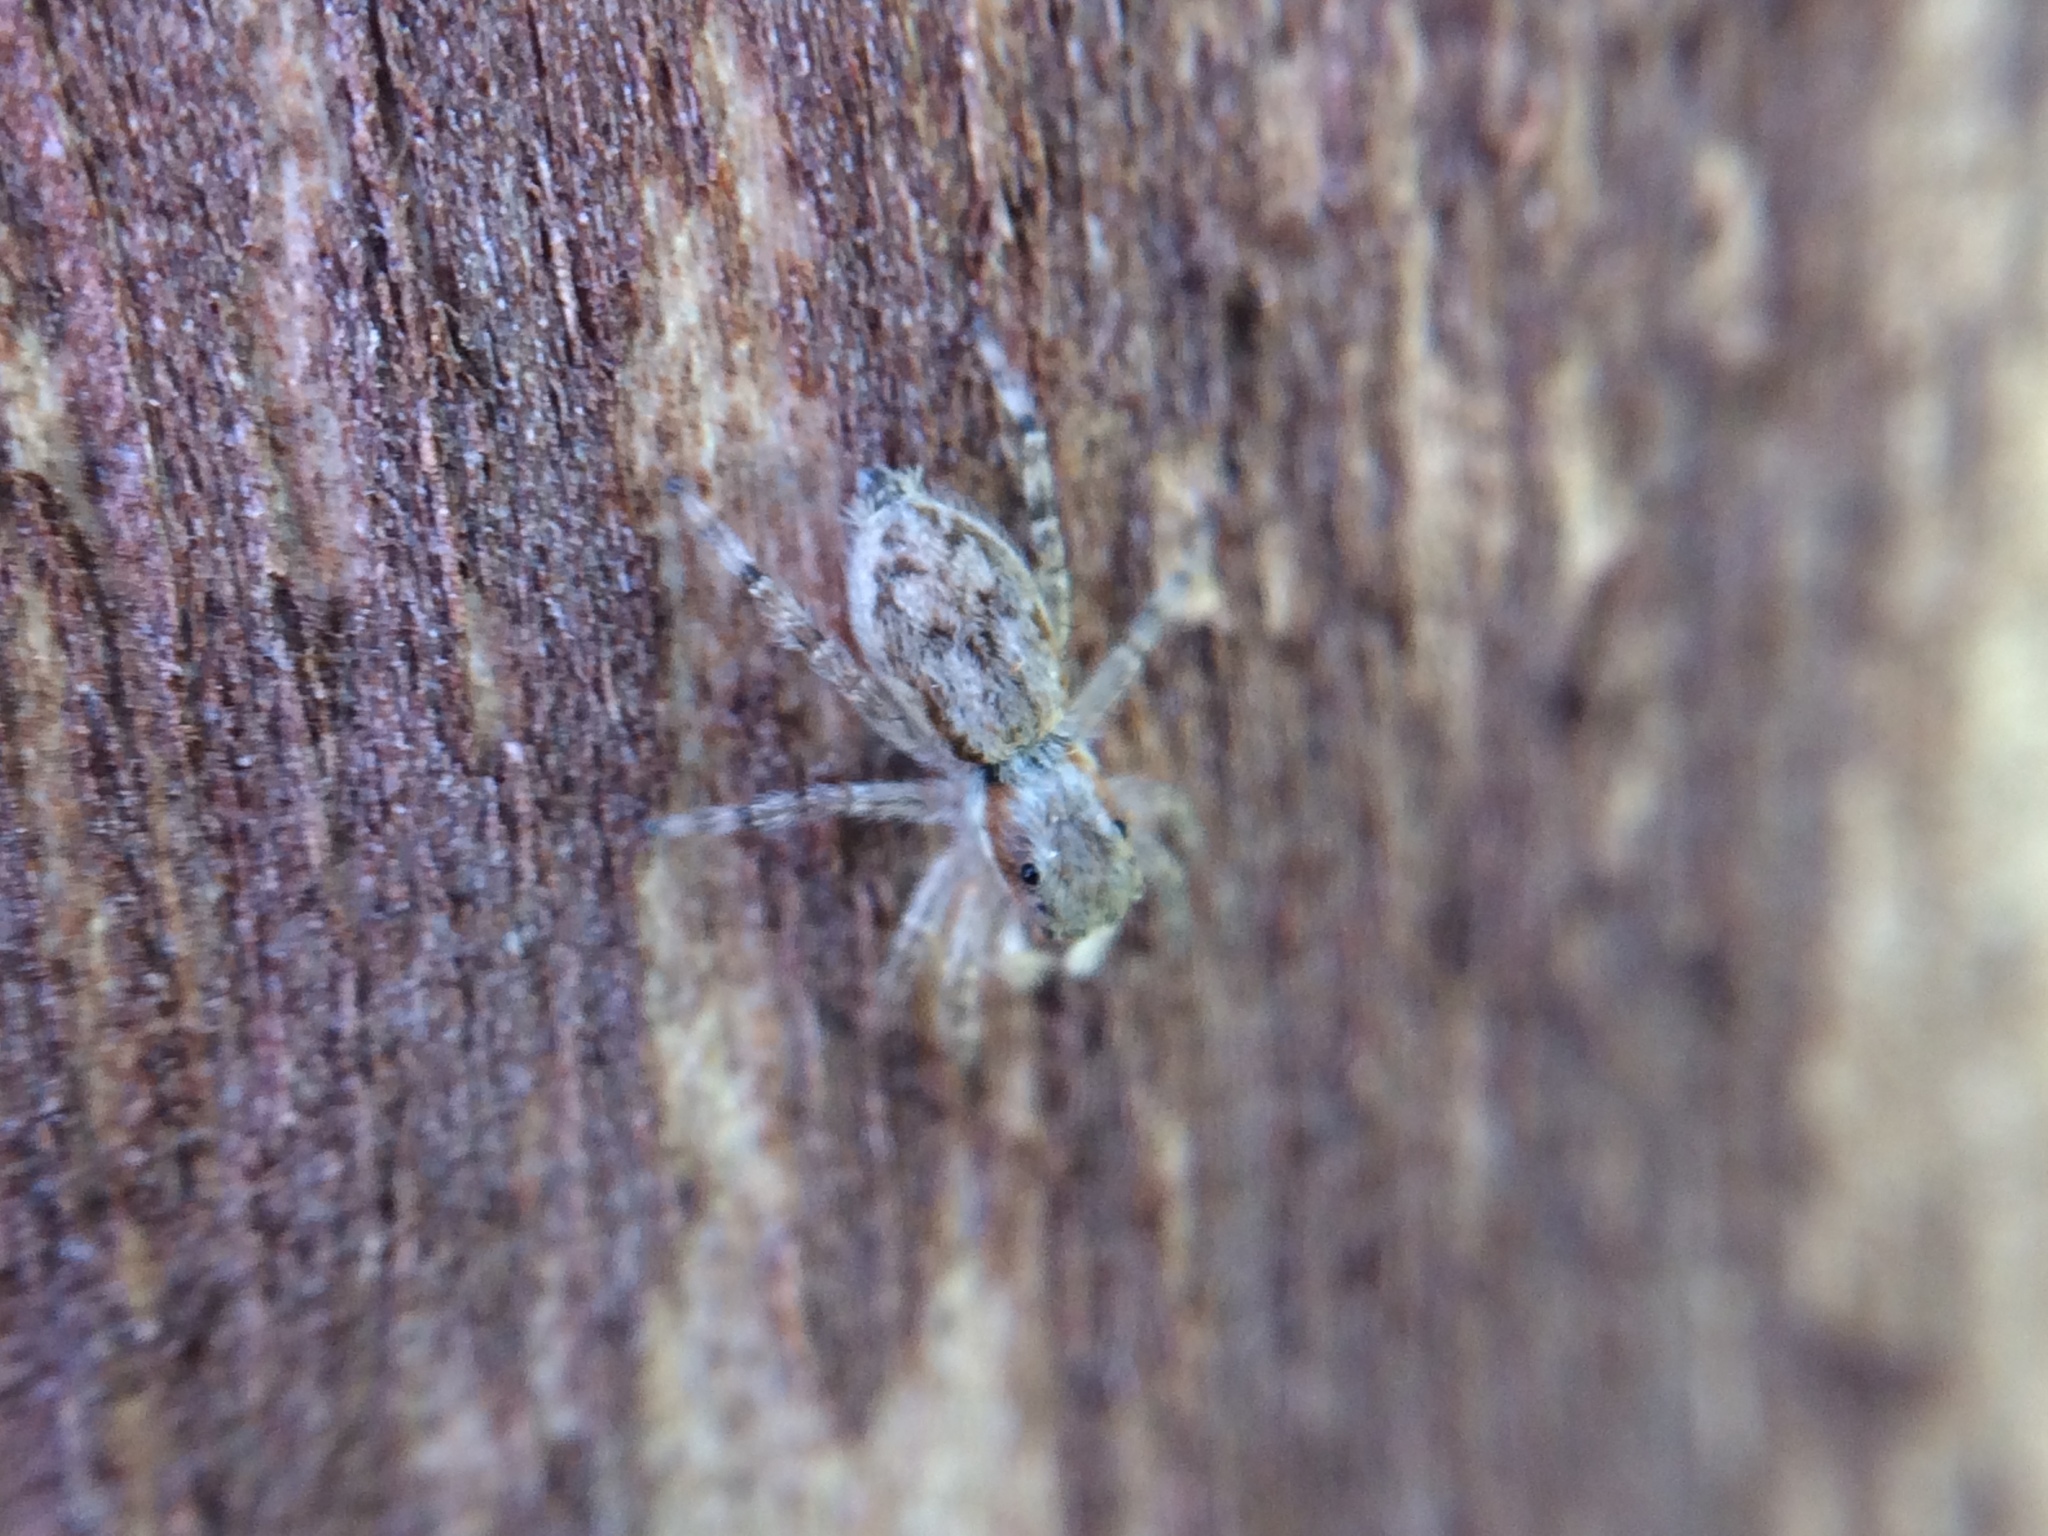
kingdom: Animalia
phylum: Arthropoda
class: Arachnida
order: Araneae
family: Salticidae
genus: Menemerus
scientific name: Menemerus bivittatus
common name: Gray wall jumper
